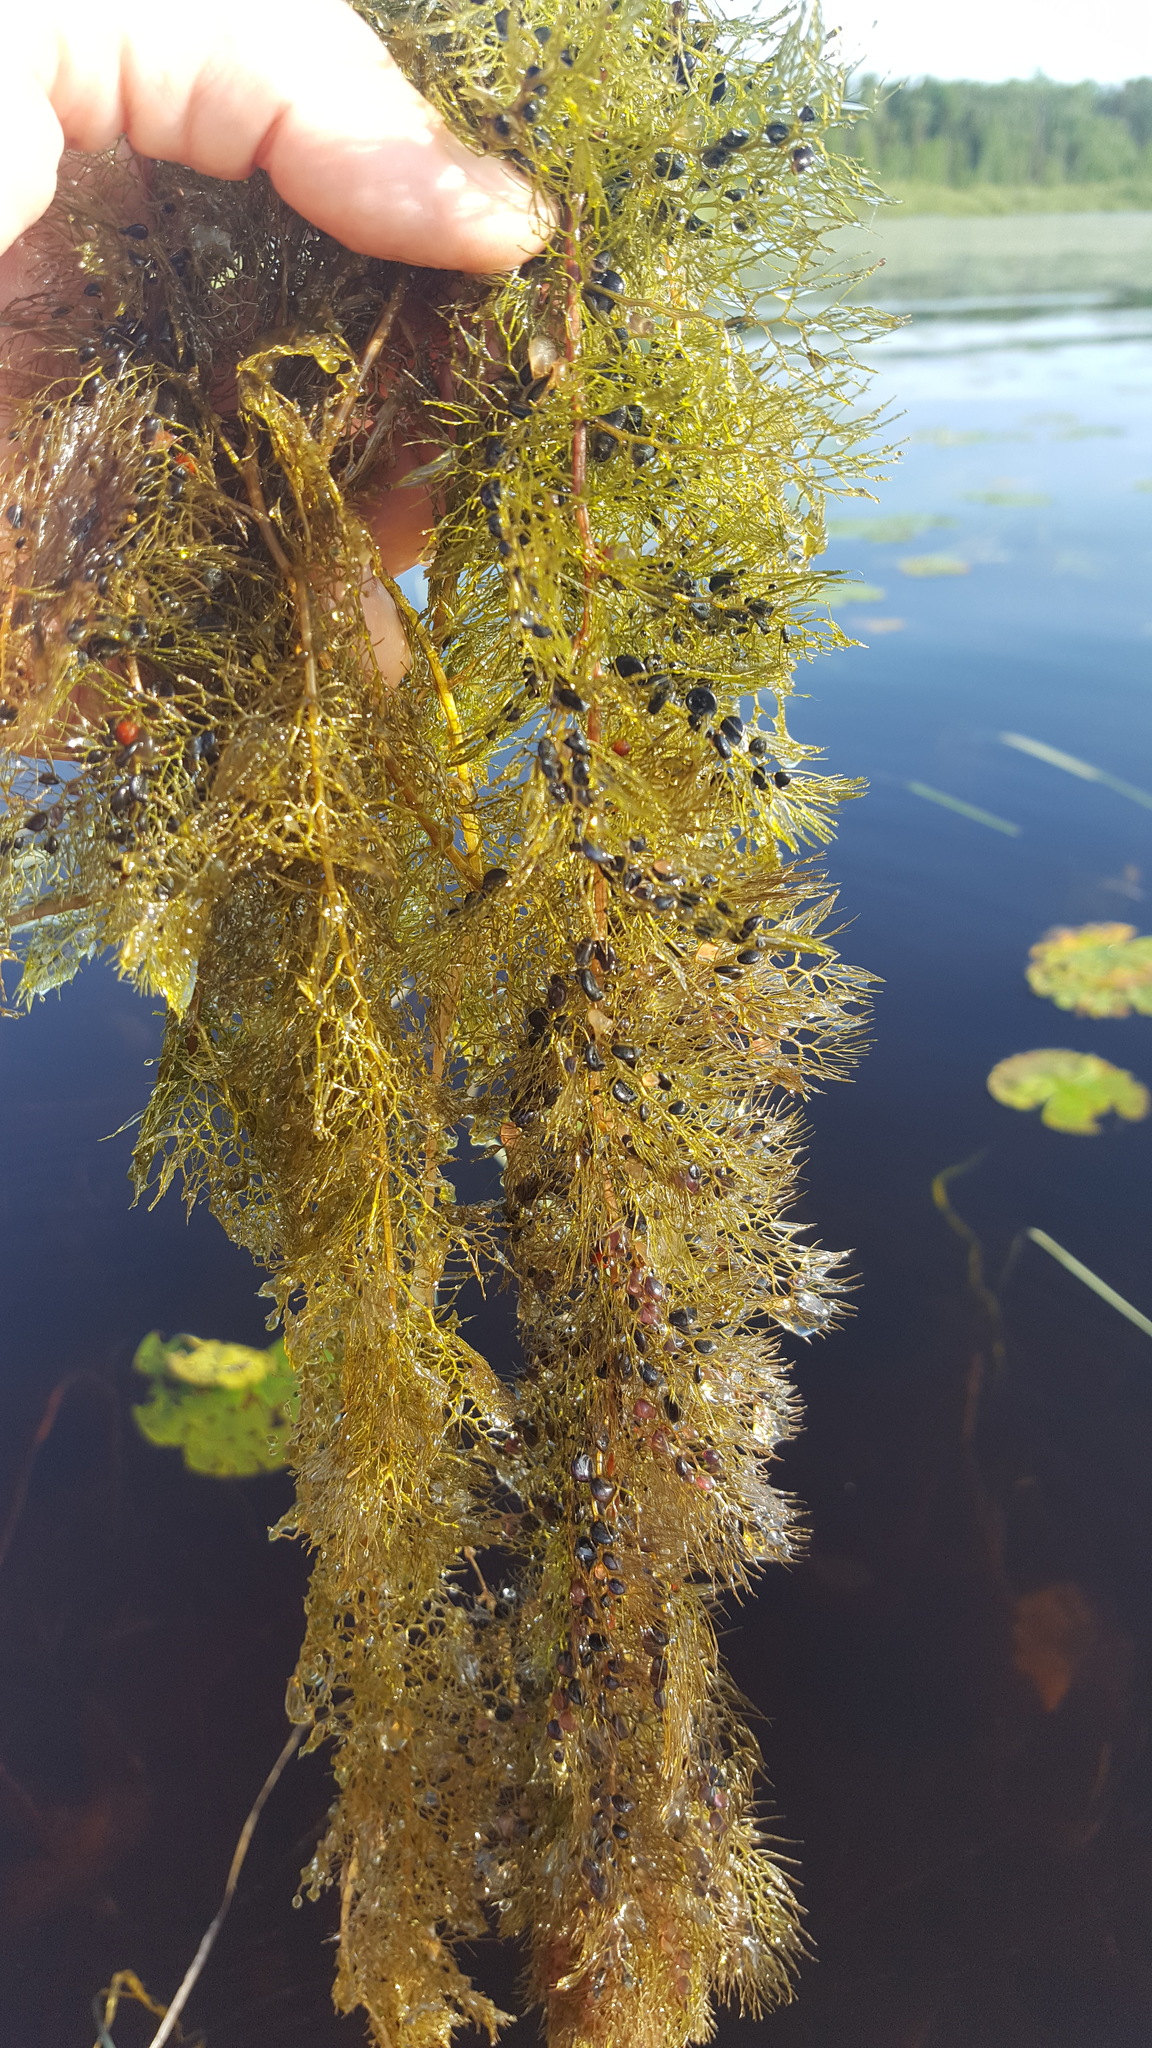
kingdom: Plantae
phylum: Tracheophyta
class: Magnoliopsida
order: Lamiales
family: Lentibulariaceae
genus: Utricularia
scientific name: Utricularia macrorhiza
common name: Common bladderwort
